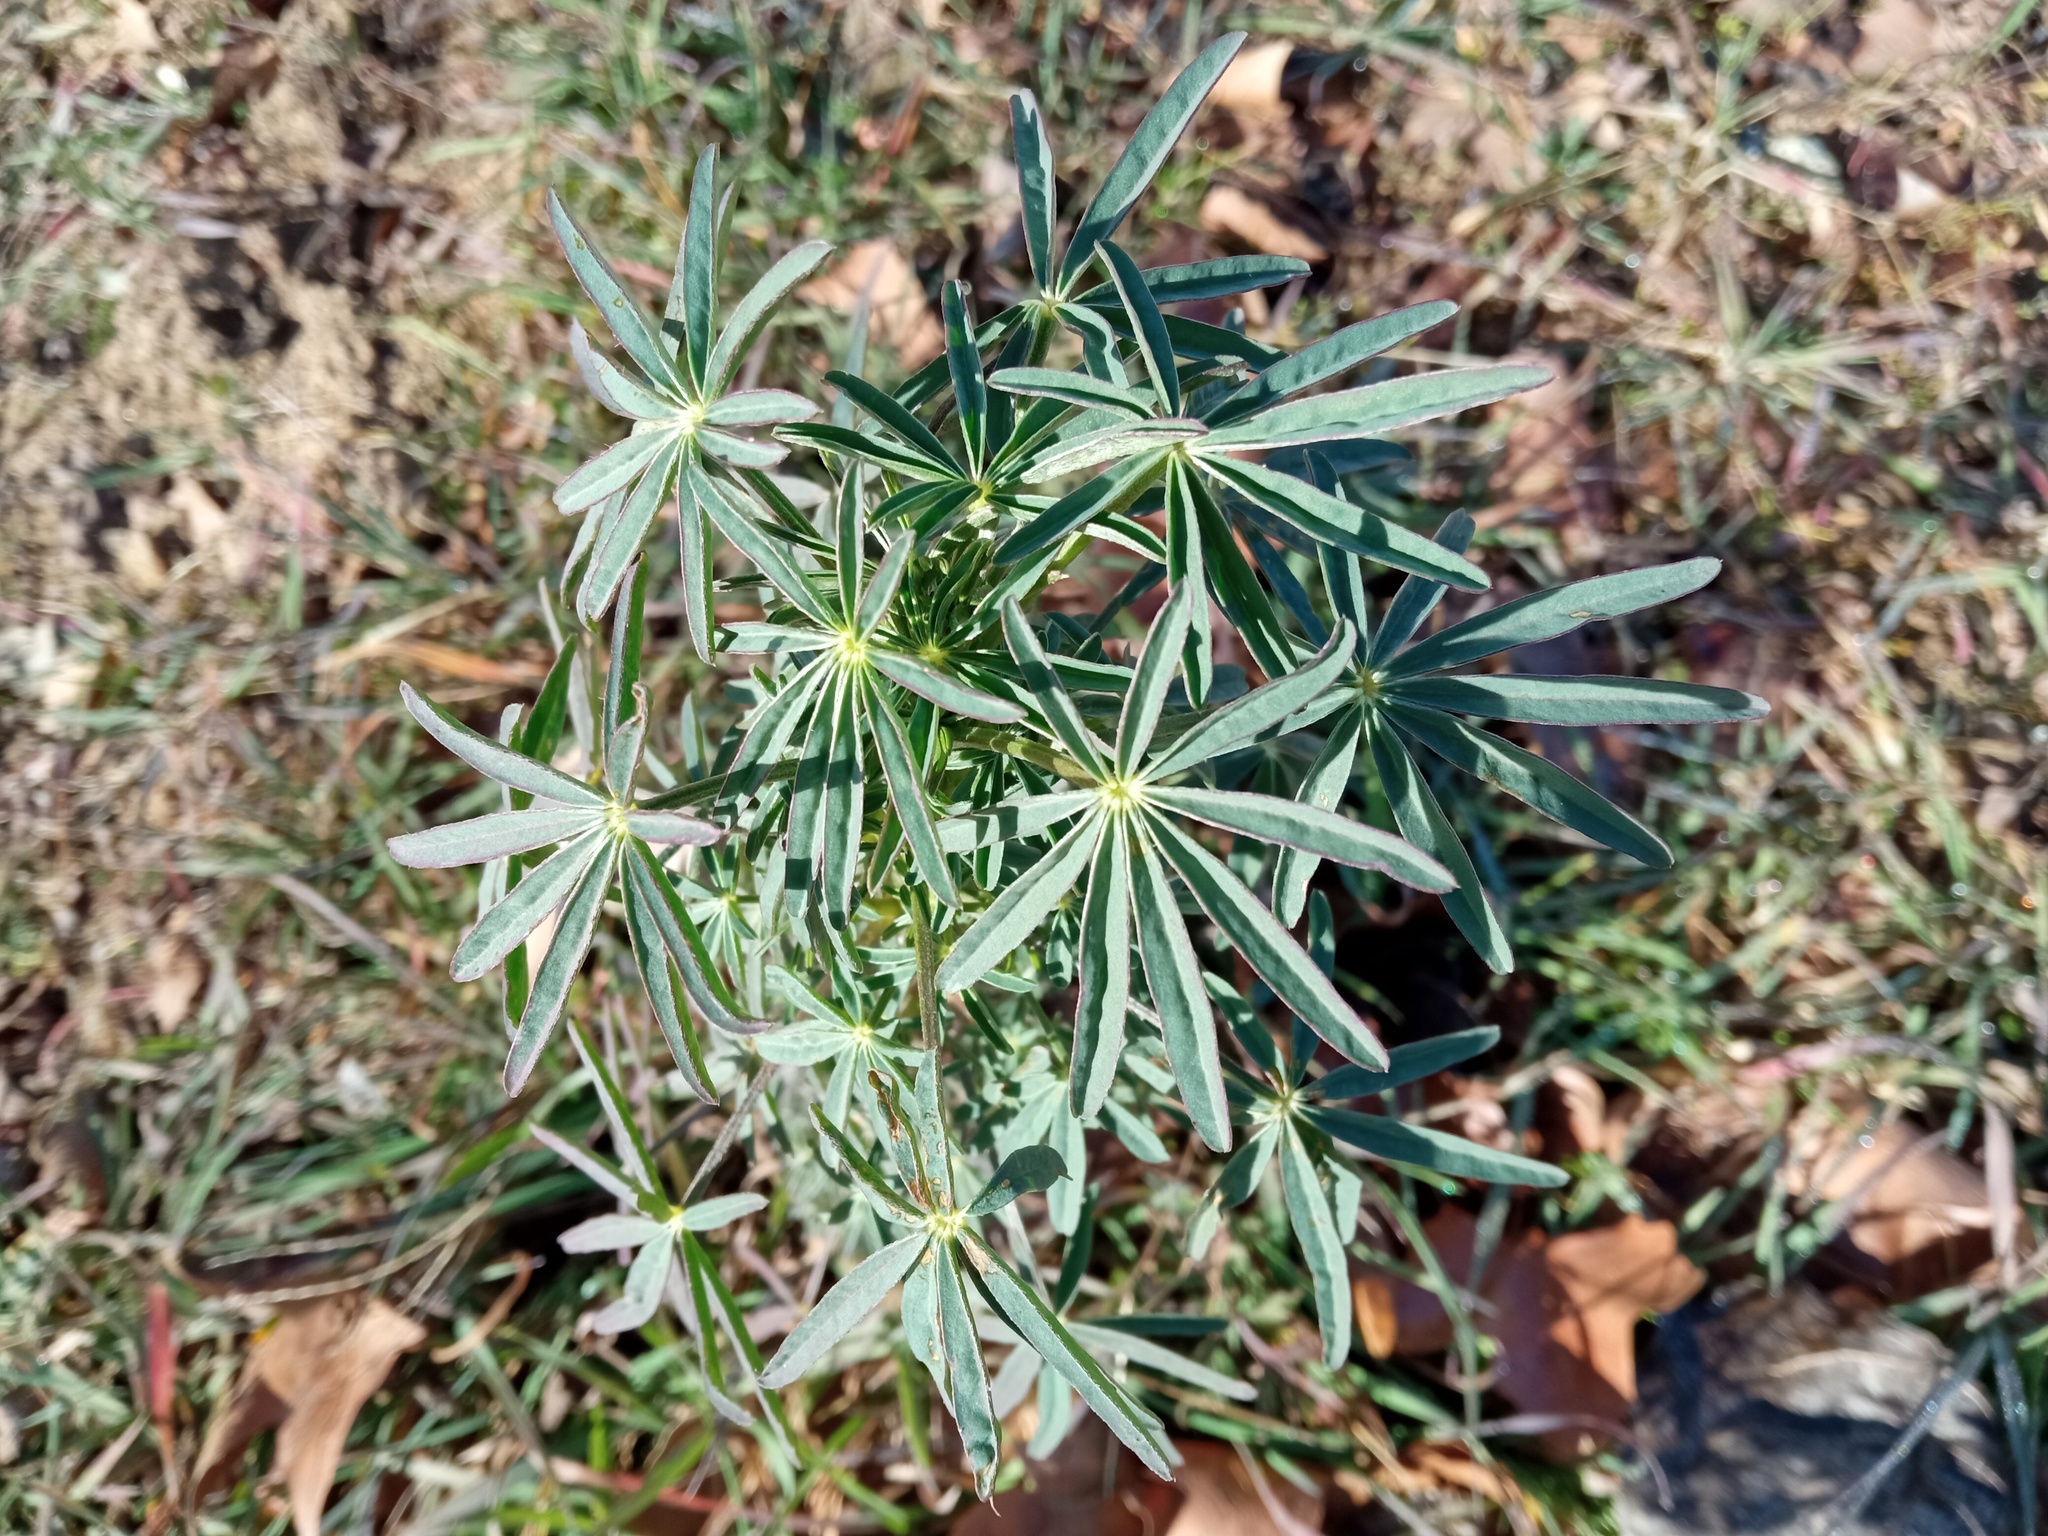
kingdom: Plantae
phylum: Tracheophyta
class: Magnoliopsida
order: Fabales
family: Fabaceae
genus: Lupinus
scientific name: Lupinus angustifolius
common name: Narrow-leaved lupin
